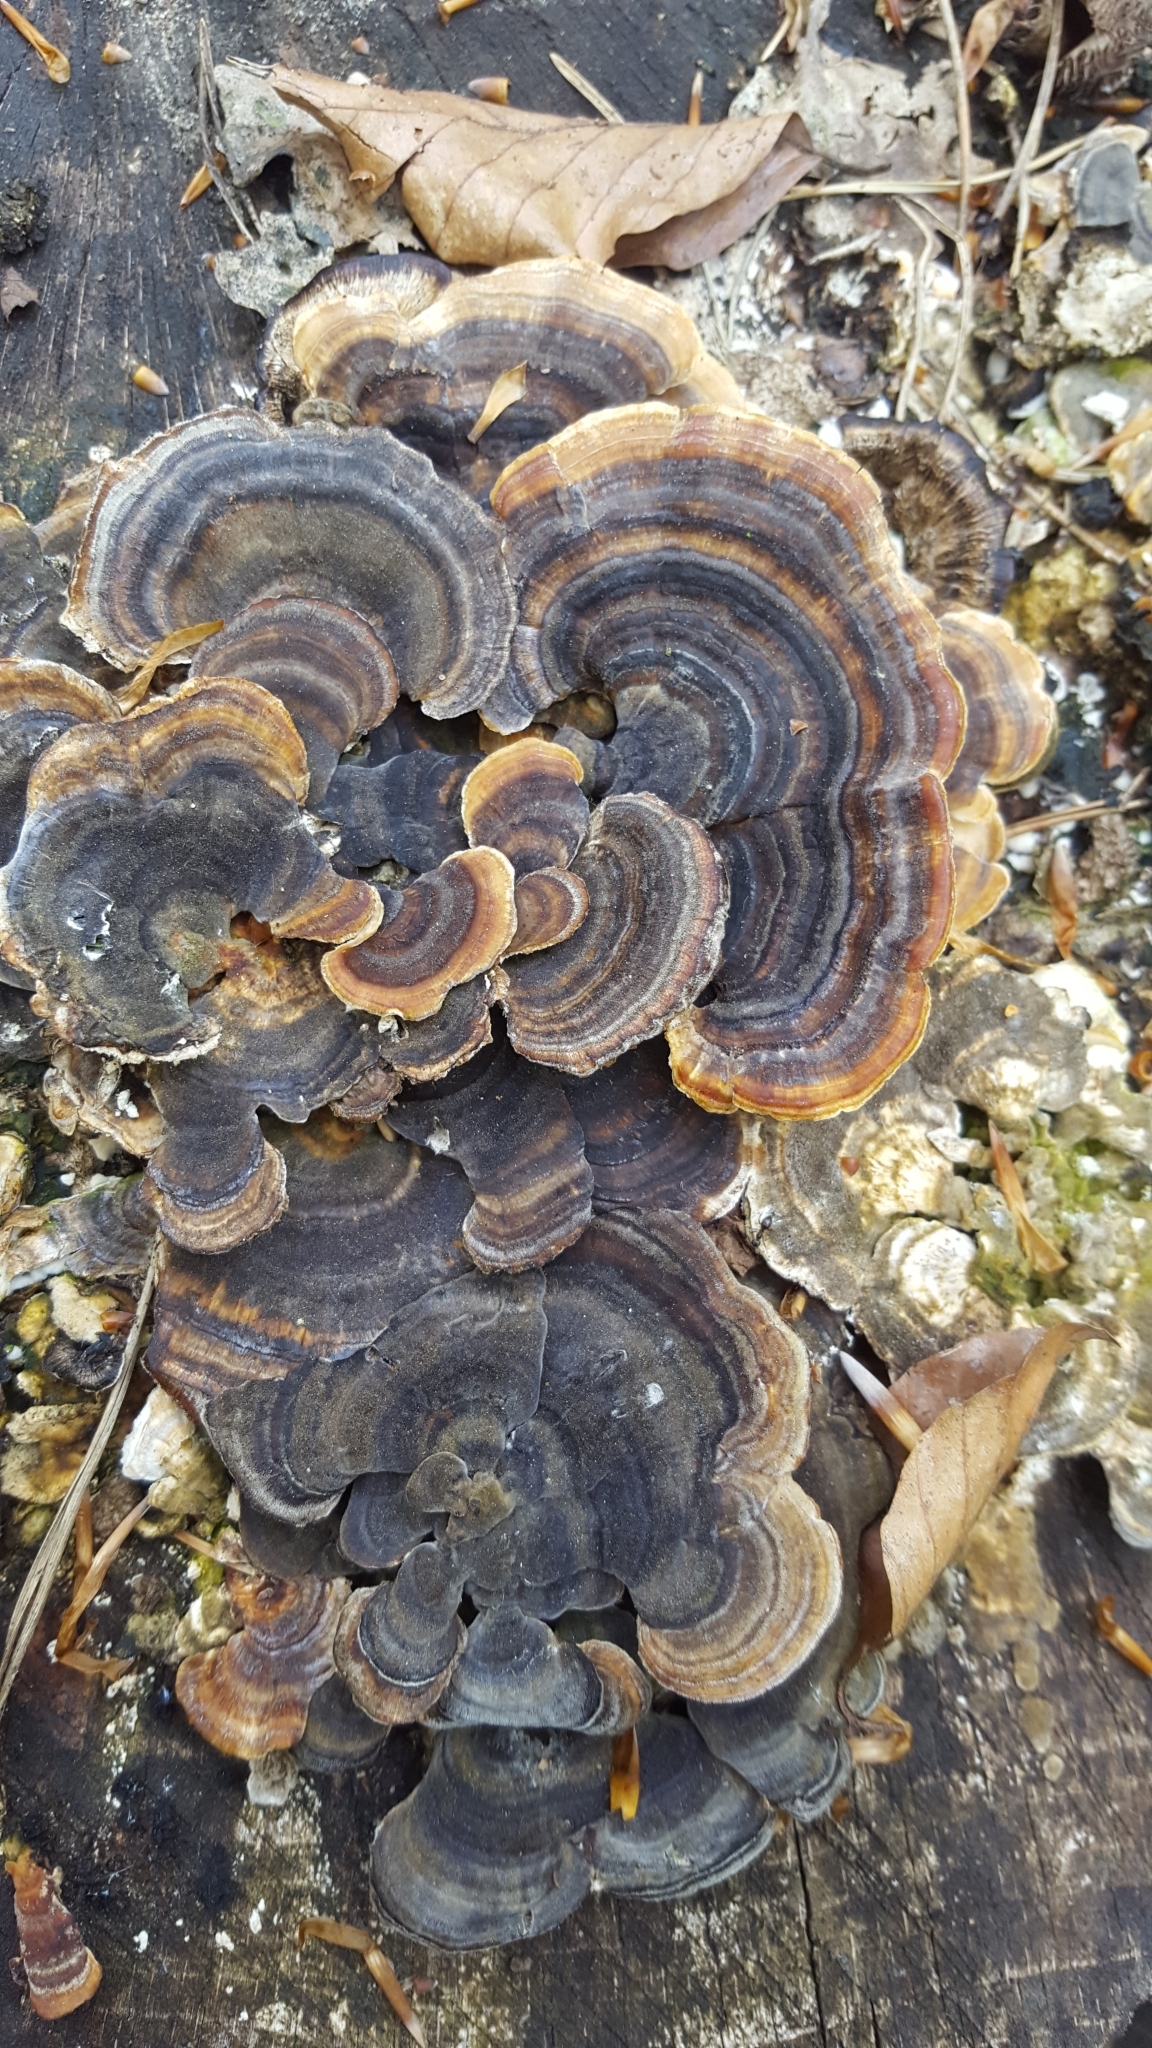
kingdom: Fungi
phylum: Basidiomycota
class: Agaricomycetes
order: Polyporales
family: Polyporaceae
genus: Trametes
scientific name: Trametes versicolor
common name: Turkeytail
